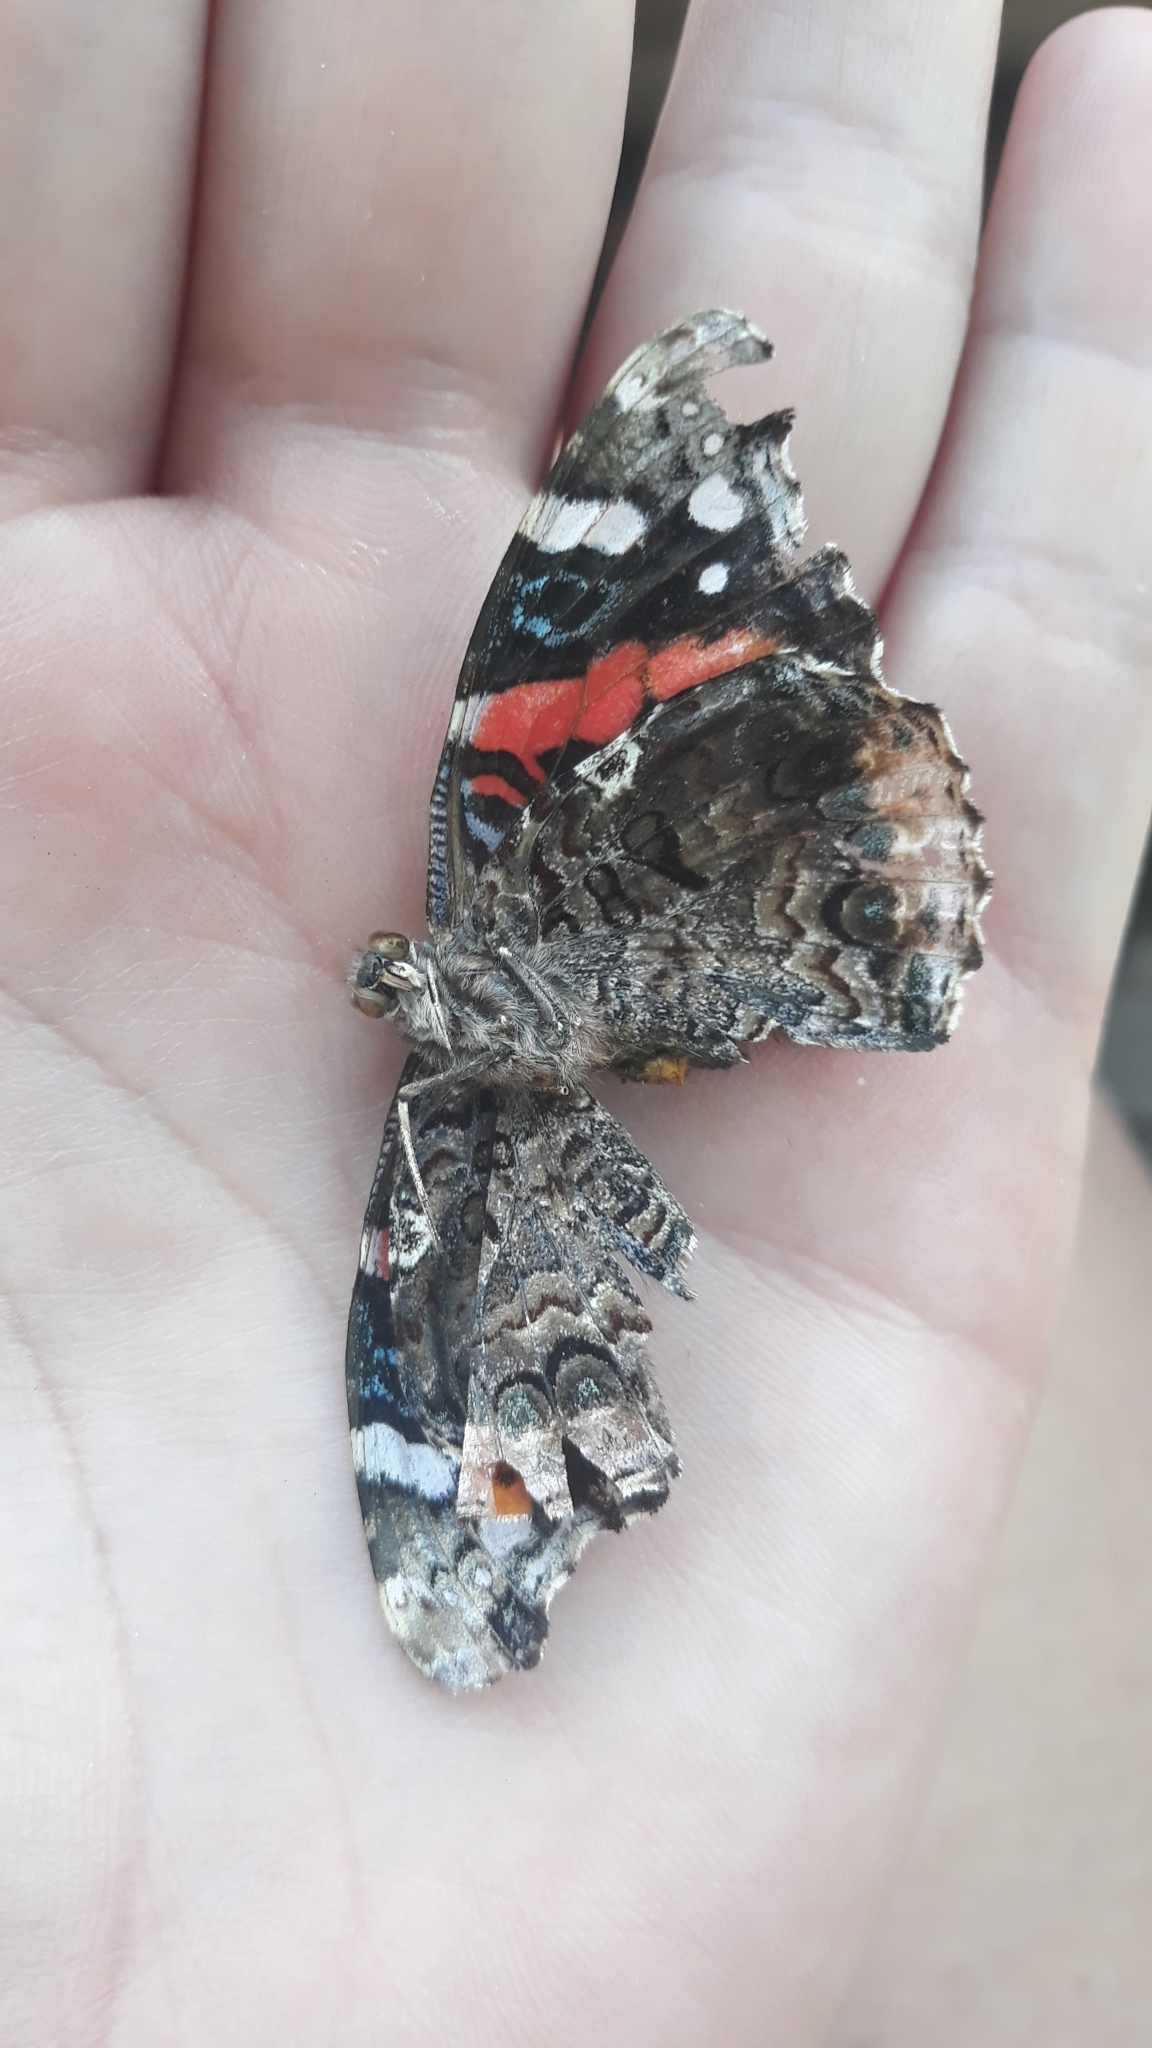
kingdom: Animalia
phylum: Arthropoda
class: Insecta
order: Lepidoptera
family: Nymphalidae
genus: Vanessa
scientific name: Vanessa atalanta
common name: Red admiral
